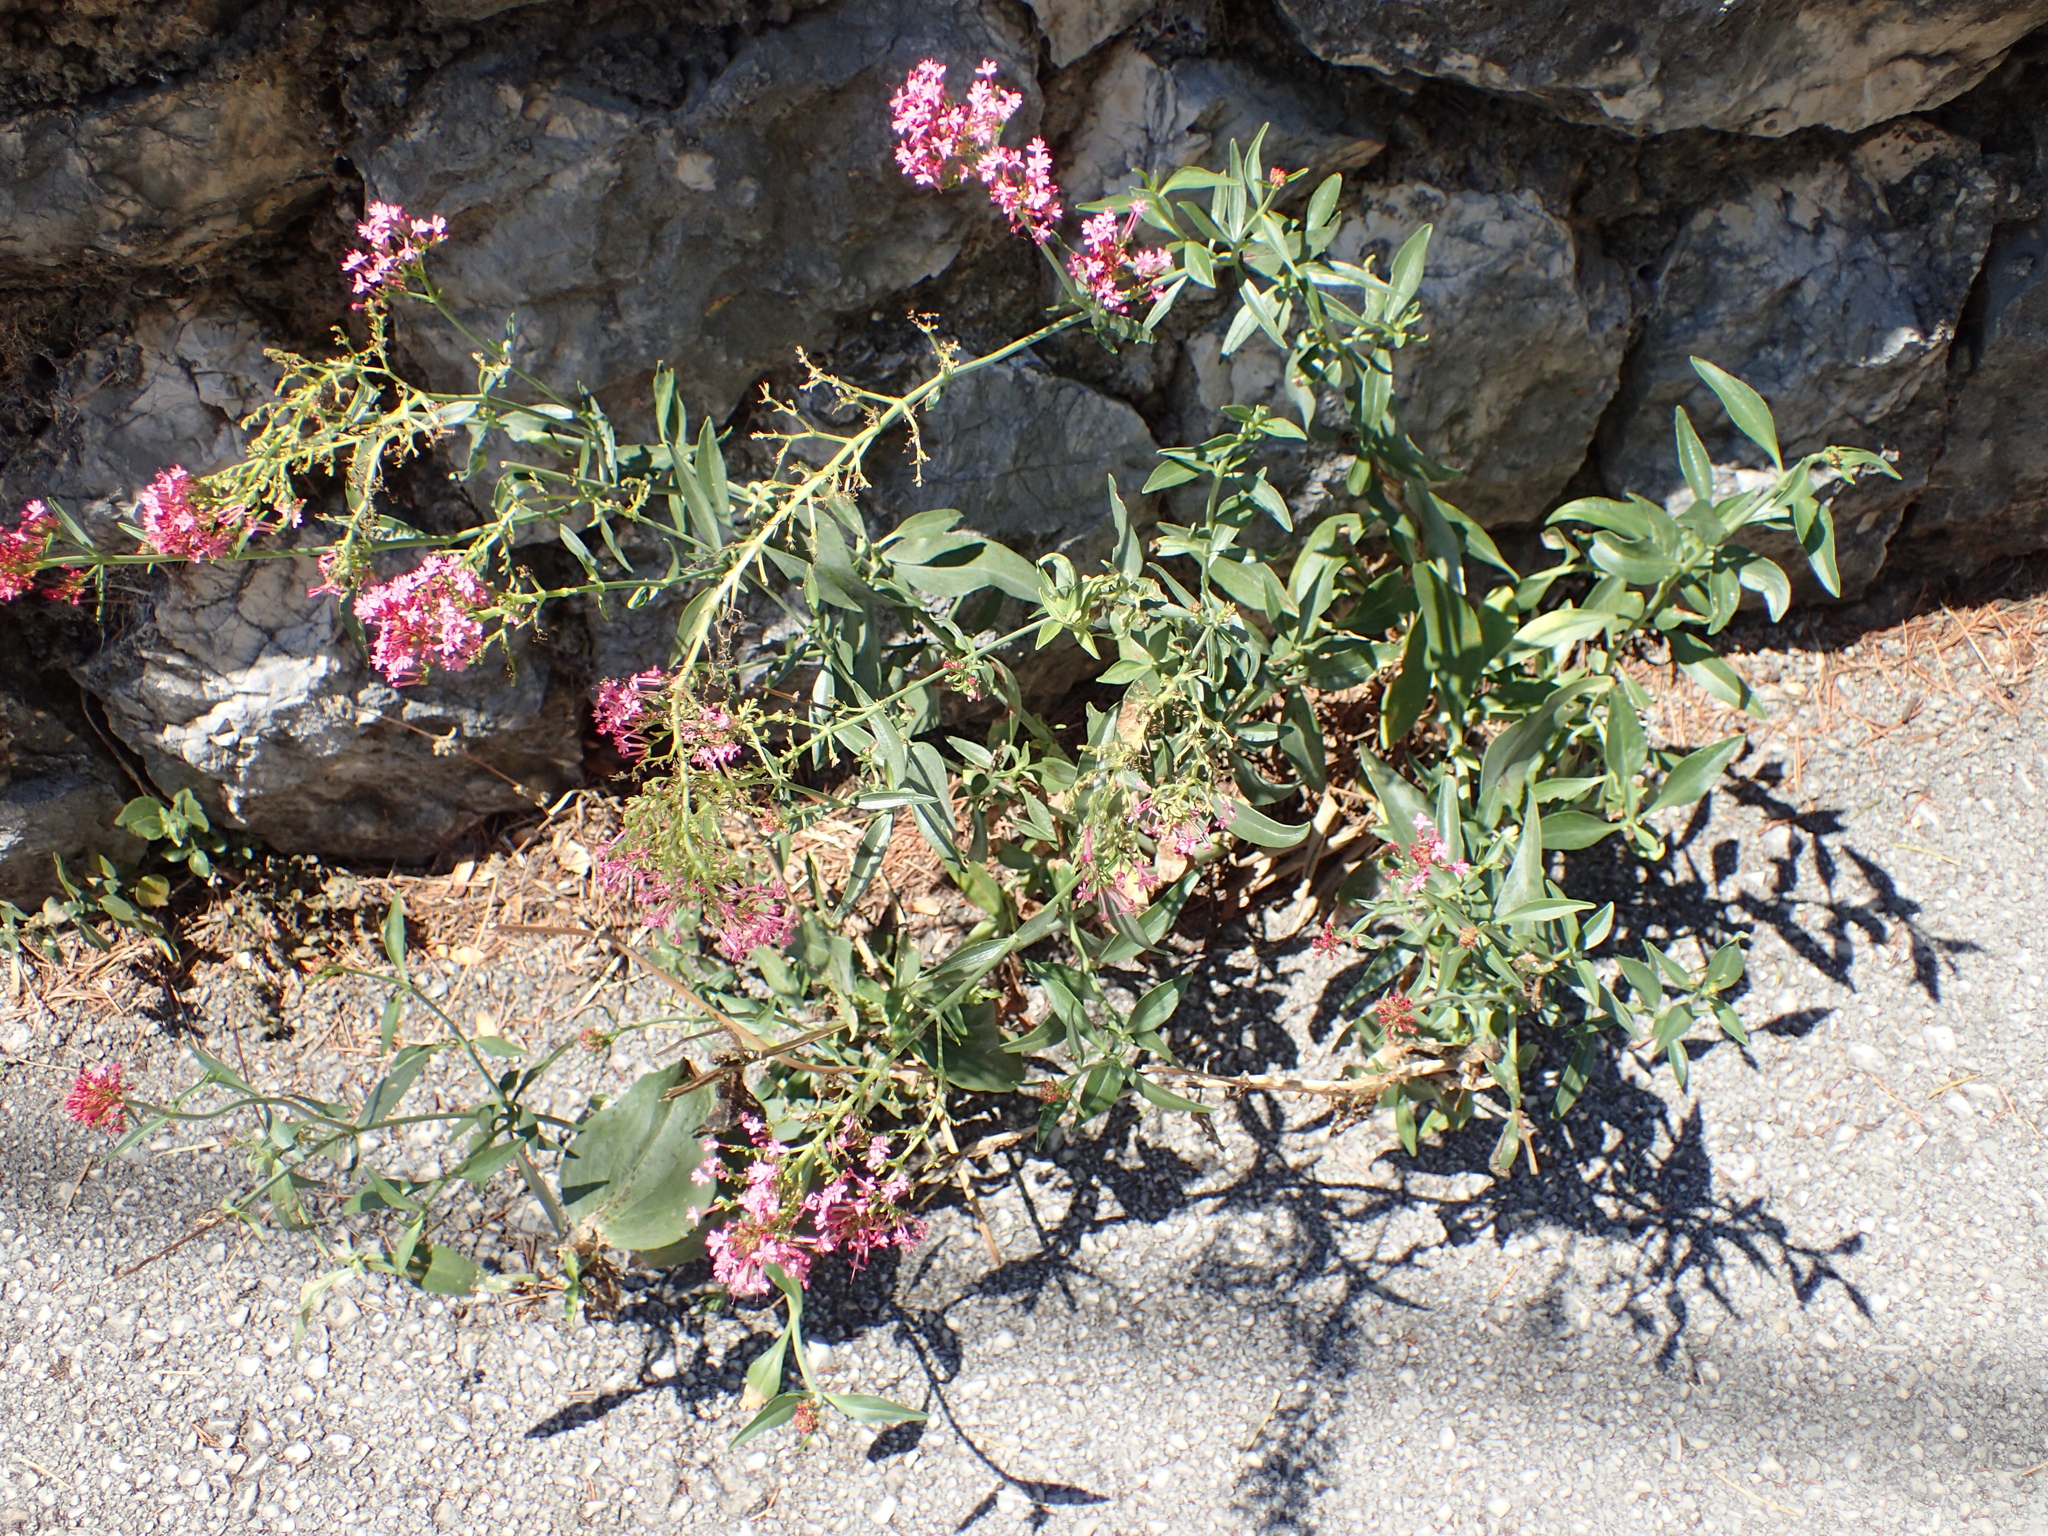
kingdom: Plantae
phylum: Tracheophyta
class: Magnoliopsida
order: Dipsacales
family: Caprifoliaceae
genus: Centranthus
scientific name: Centranthus ruber
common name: Red valerian
